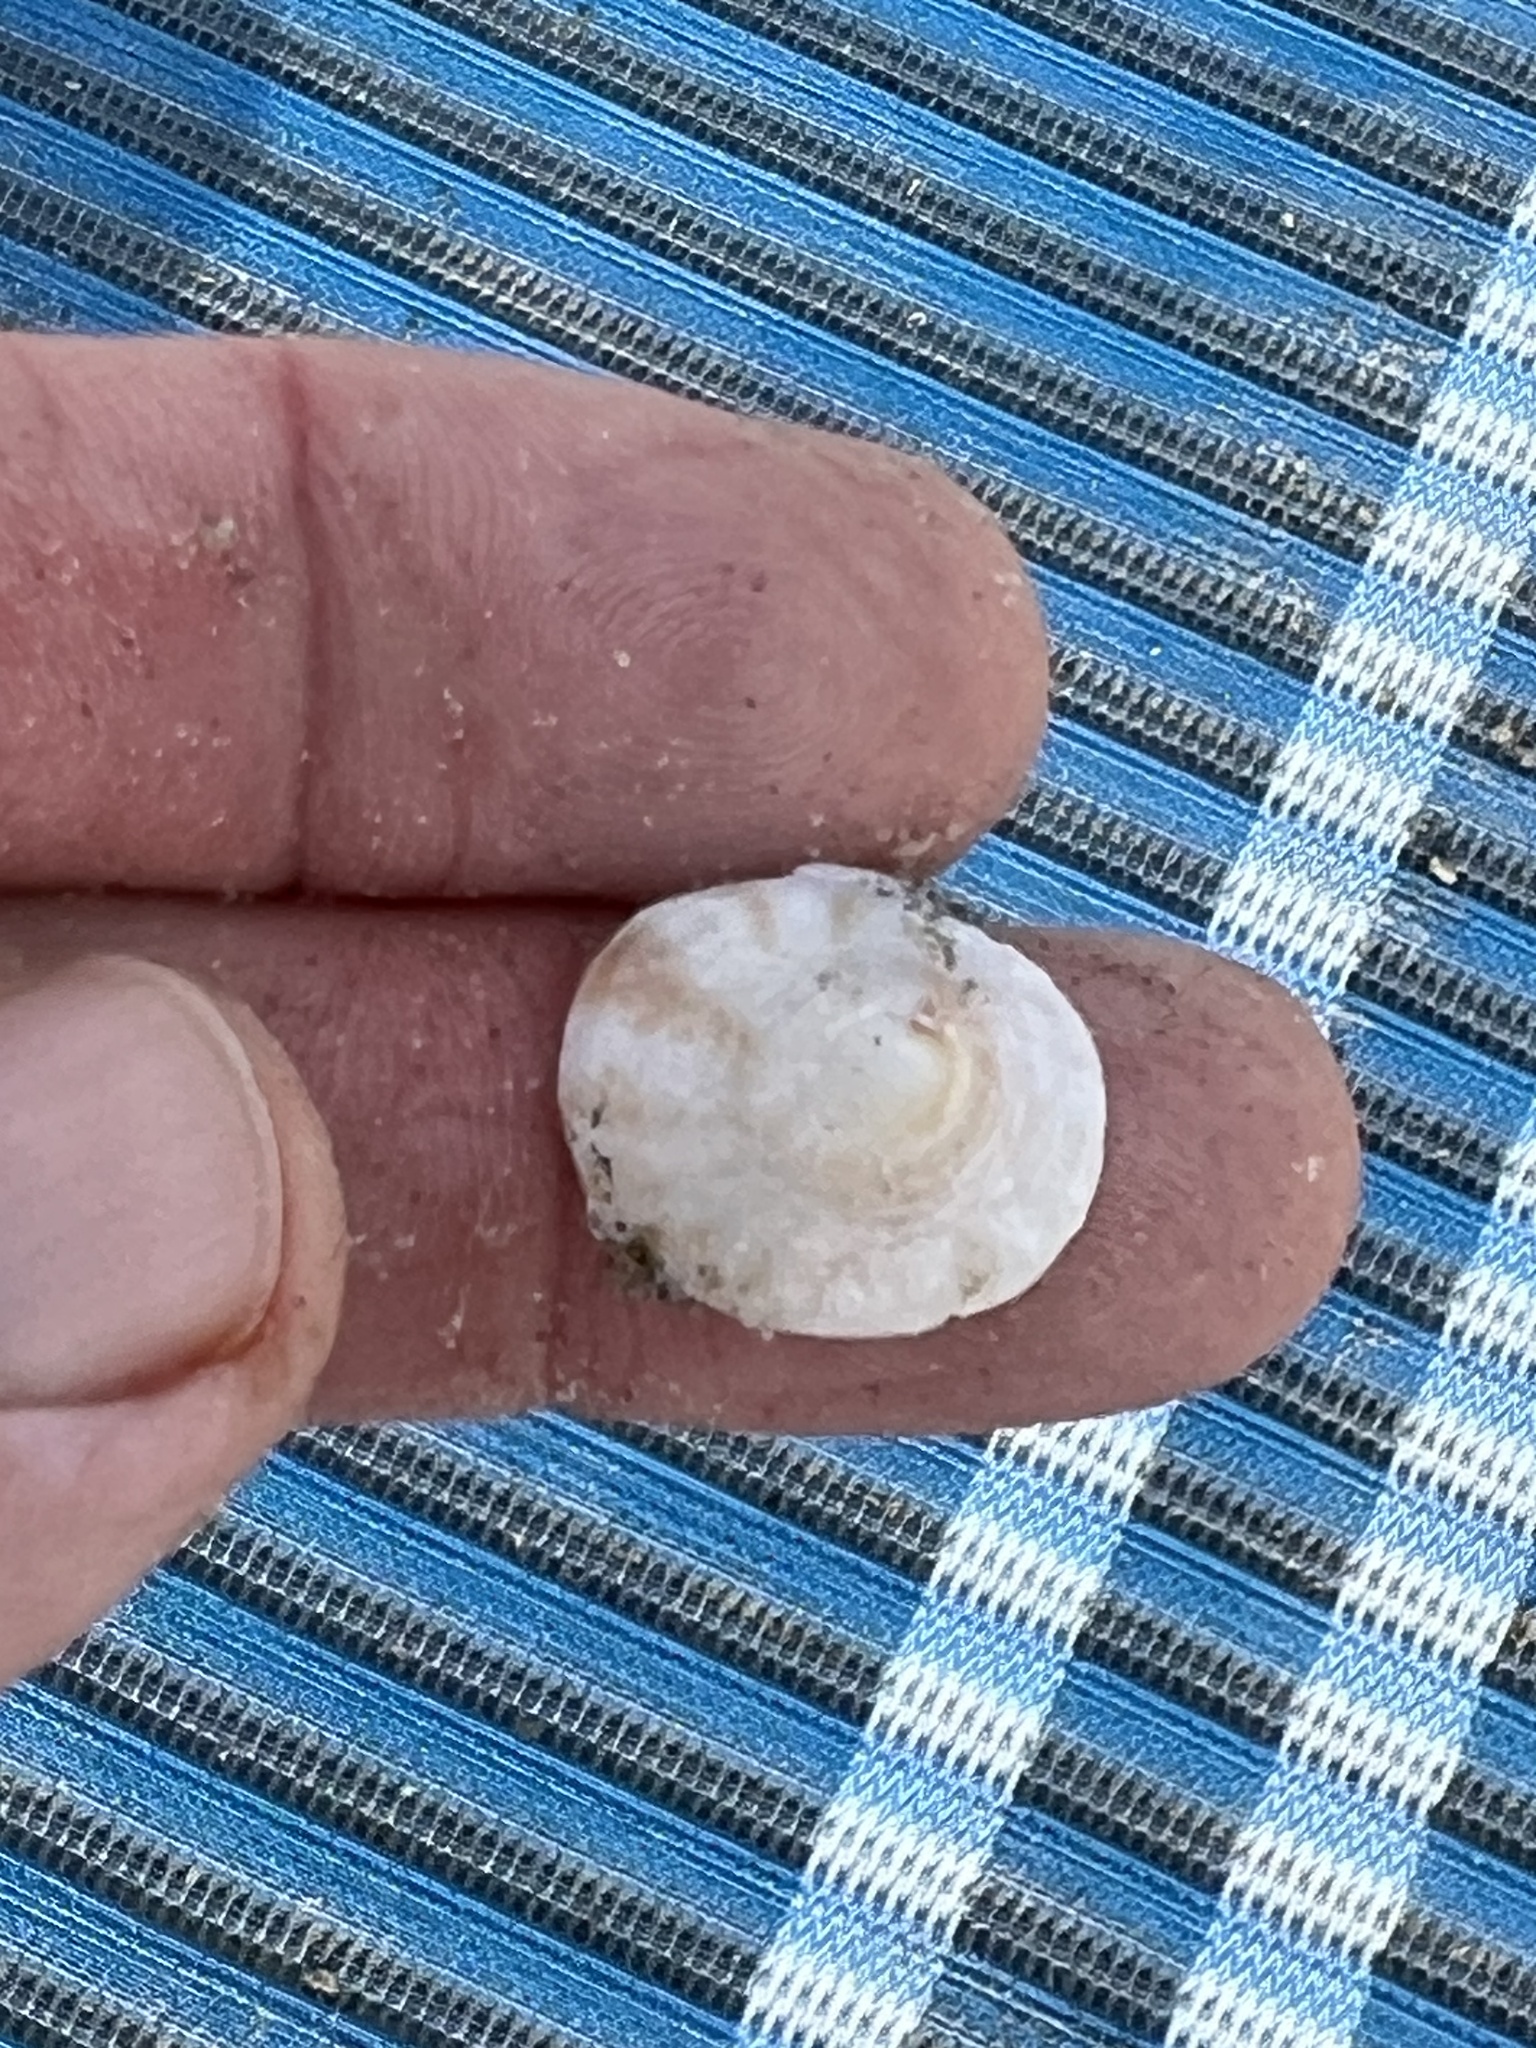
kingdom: Animalia
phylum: Mollusca
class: Gastropoda
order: Littorinimorpha
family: Calyptraeidae
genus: Crucibulum
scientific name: Crucibulum spinosum
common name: Spiny cup-and-saucer
